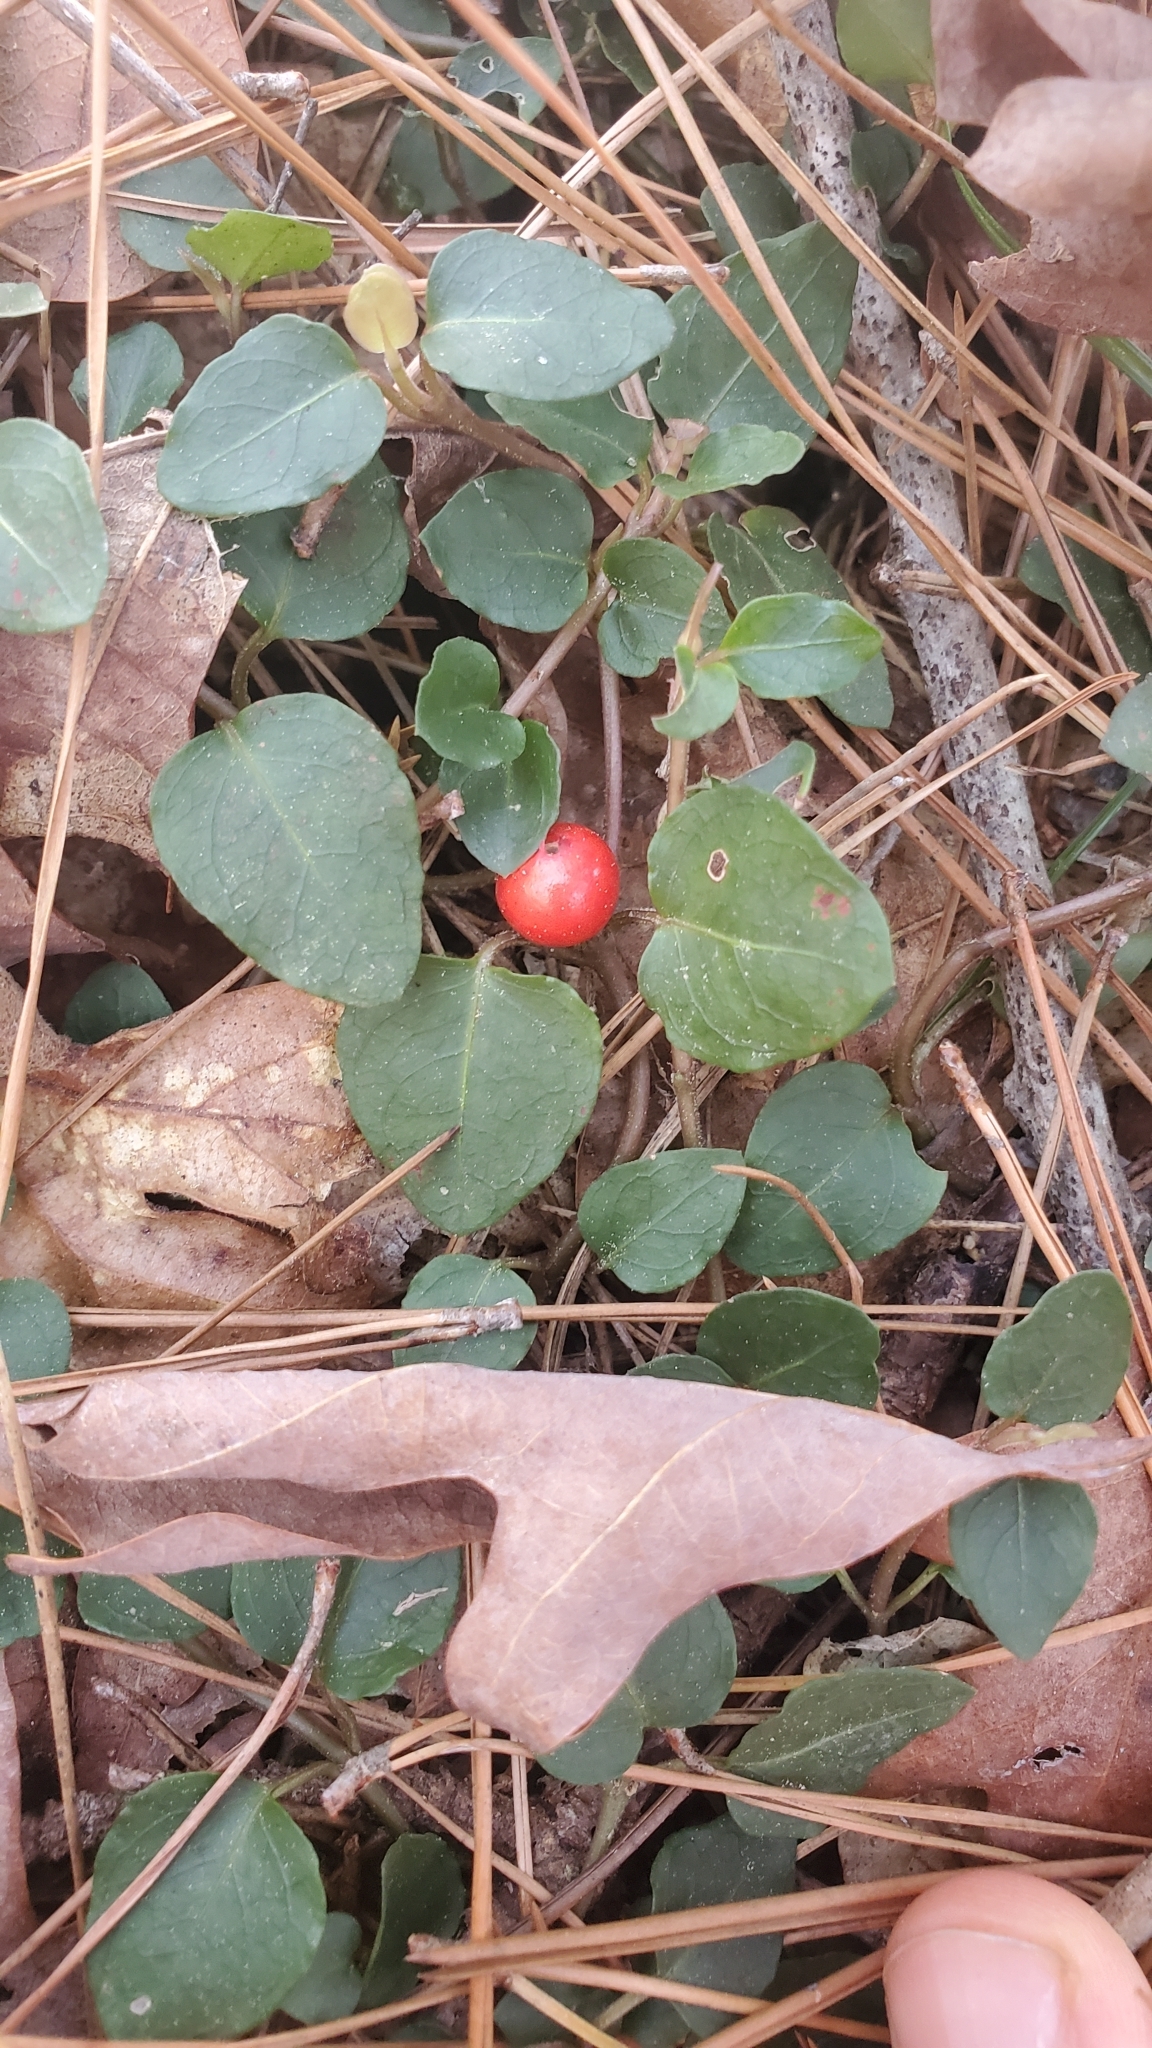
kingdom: Plantae
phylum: Tracheophyta
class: Magnoliopsida
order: Gentianales
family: Rubiaceae
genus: Mitchella
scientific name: Mitchella repens
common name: Partridge-berry
